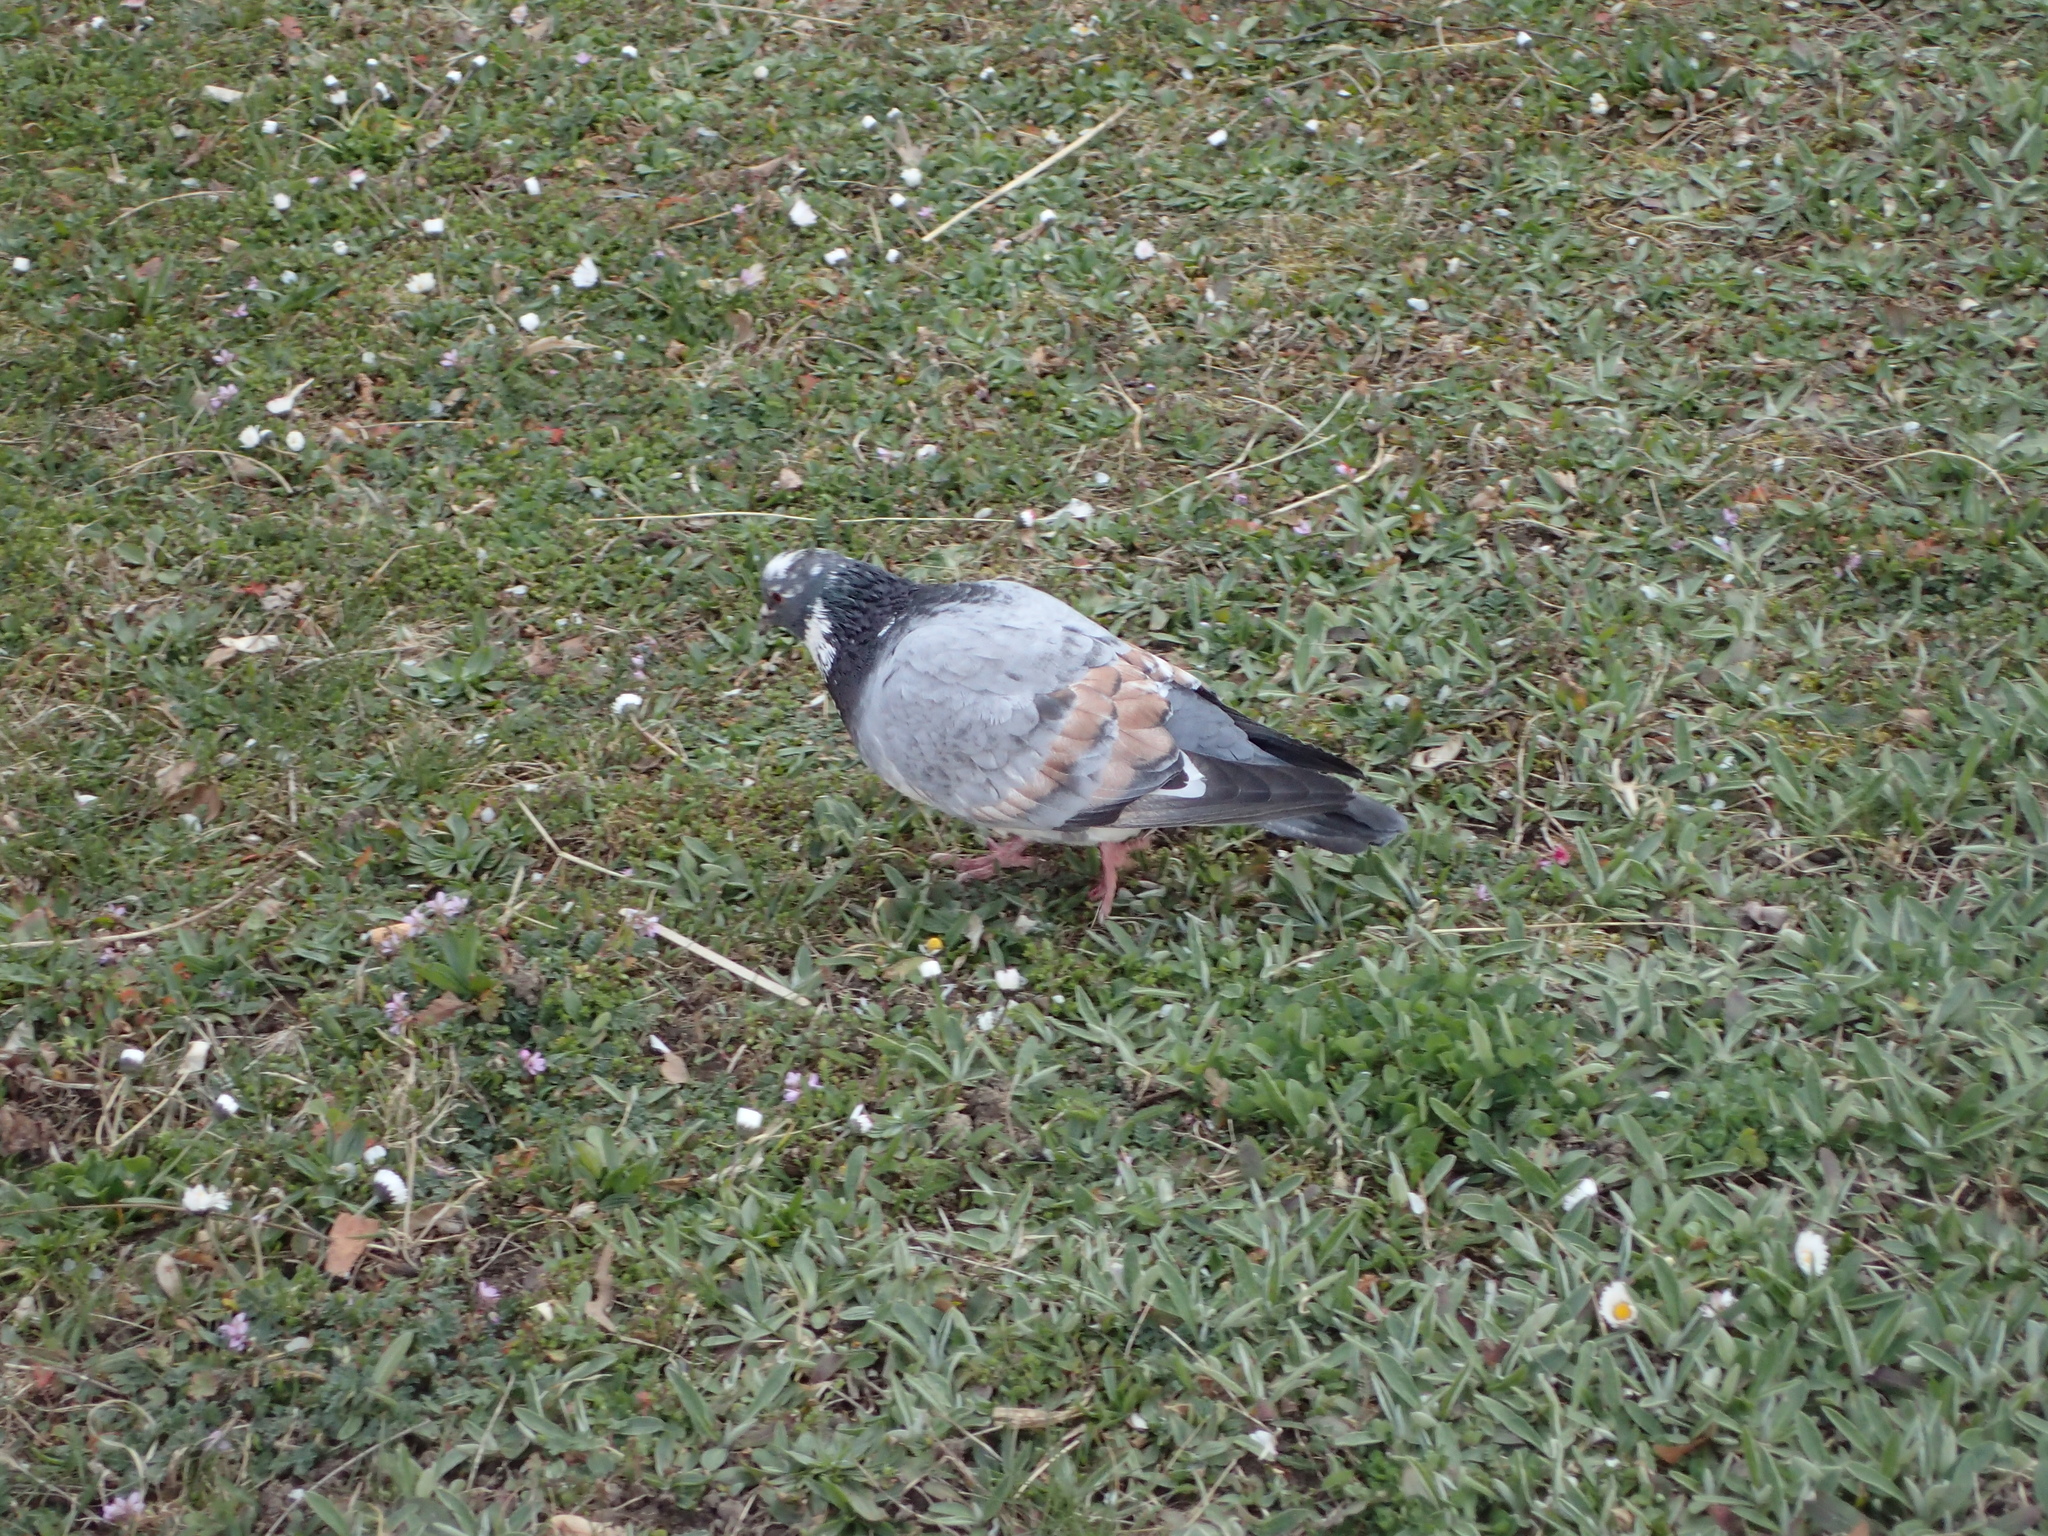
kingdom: Animalia
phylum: Chordata
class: Aves
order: Columbiformes
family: Columbidae
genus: Columba
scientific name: Columba livia
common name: Rock pigeon
